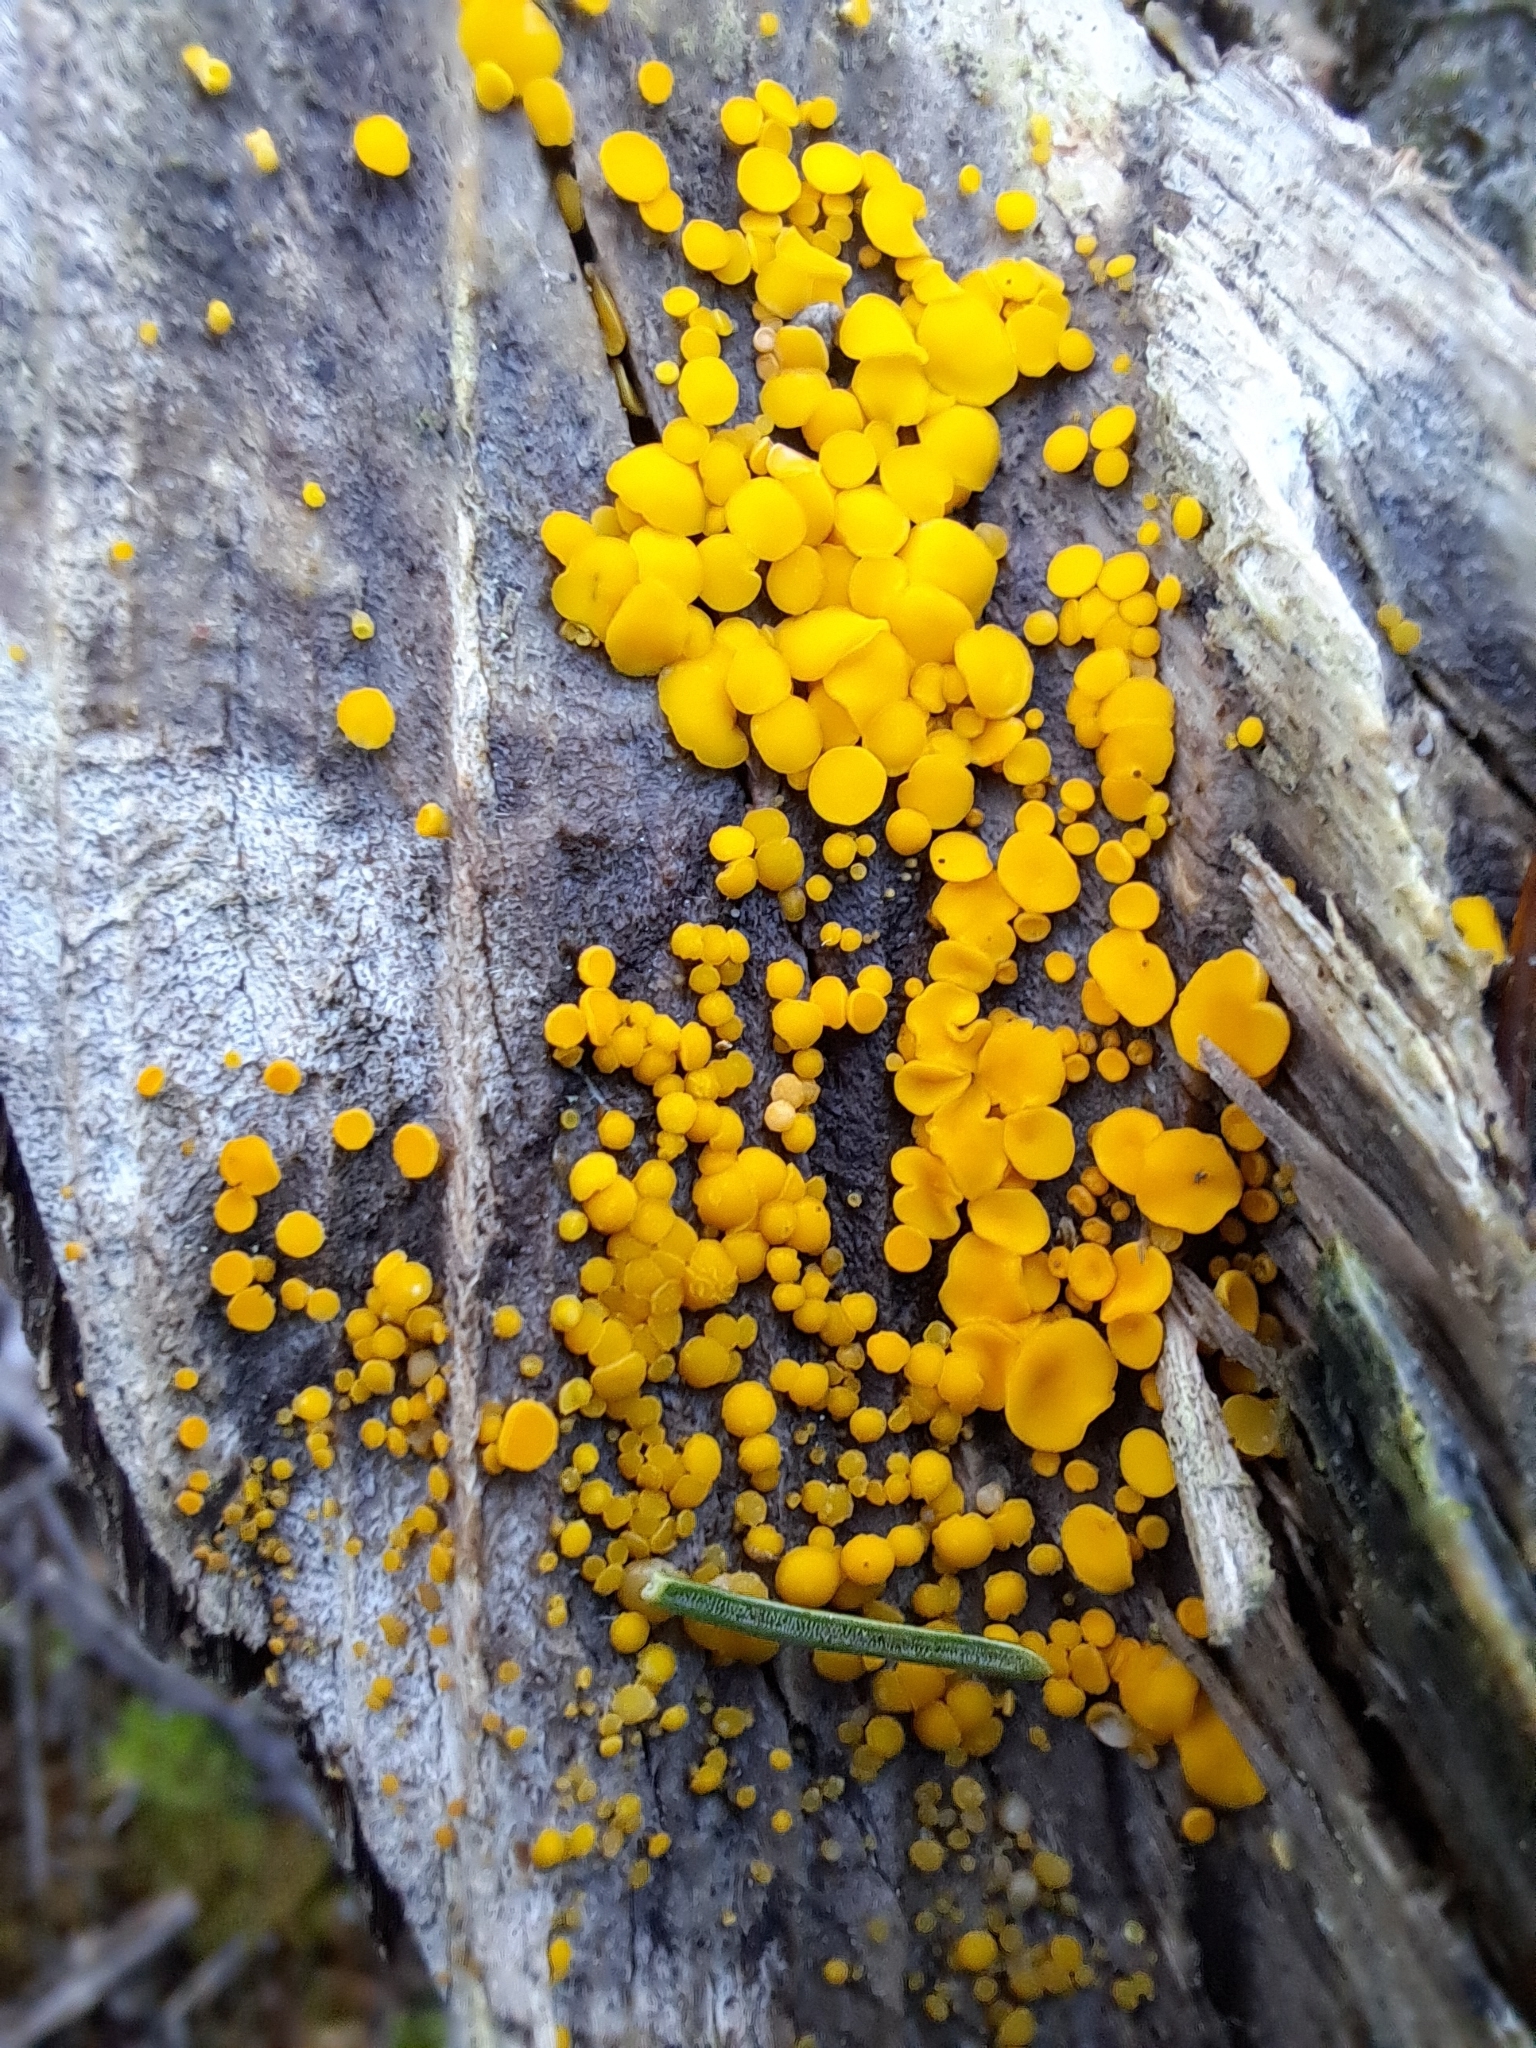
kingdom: Fungi
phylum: Ascomycota
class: Leotiomycetes
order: Helotiales
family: Pezizellaceae
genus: Calycina
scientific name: Calycina citrina
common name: Yellow fairy cups
